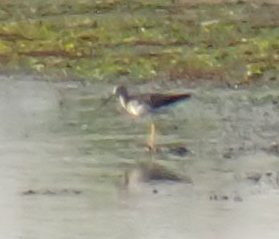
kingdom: Animalia
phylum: Chordata
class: Aves
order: Charadriiformes
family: Scolopacidae
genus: Tringa
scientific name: Tringa melanoleuca
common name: Greater yellowlegs
